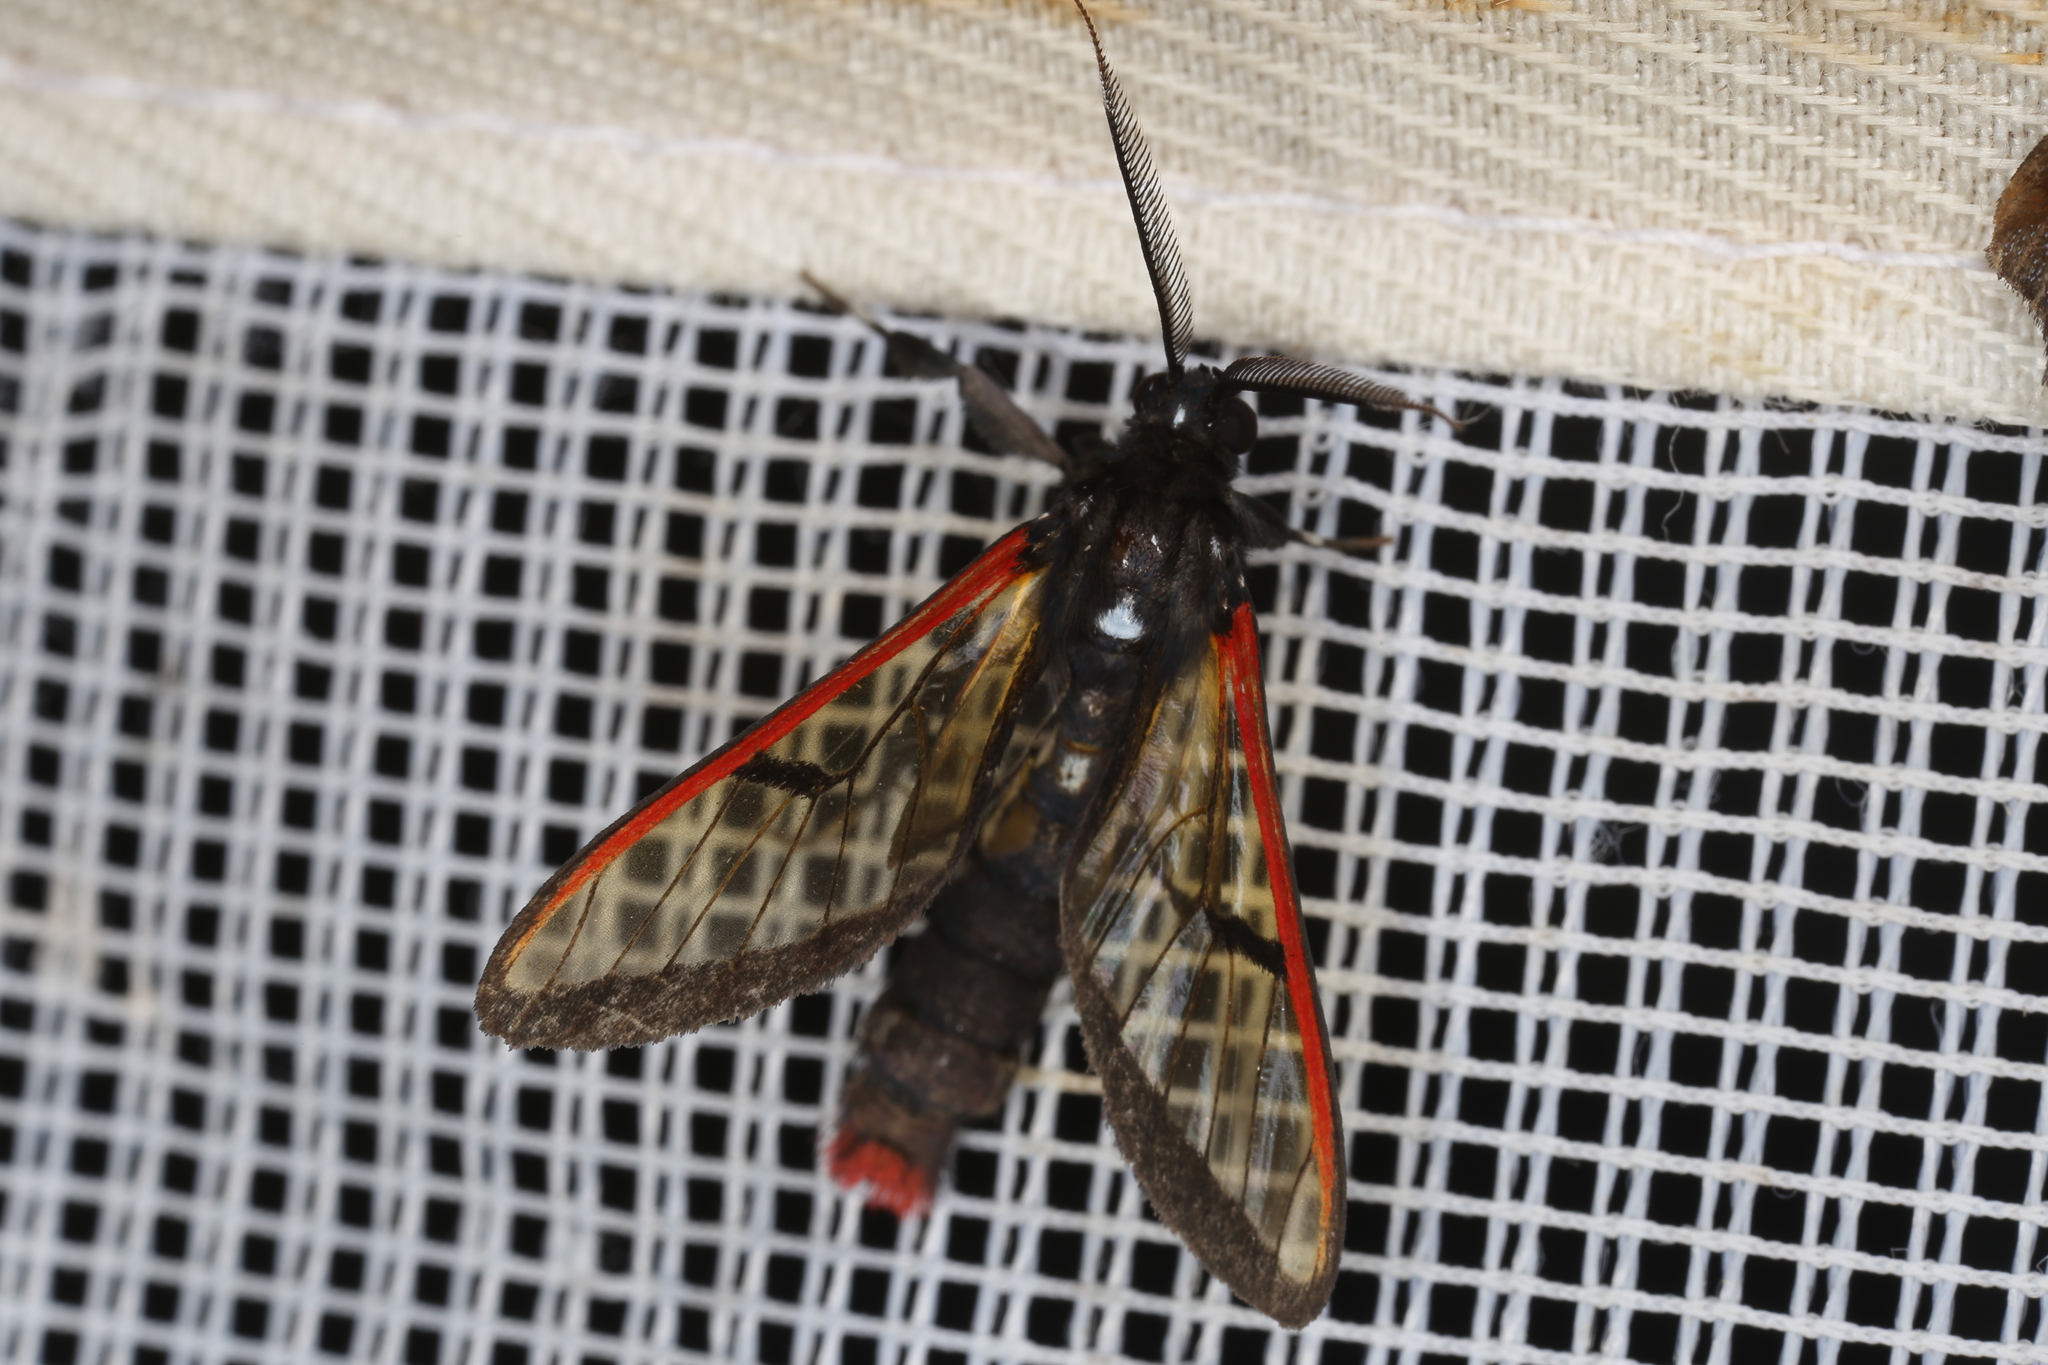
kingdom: Animalia
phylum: Arthropoda
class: Insecta
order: Lepidoptera
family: Erebidae
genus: Pseudosphex
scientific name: Pseudosphex
